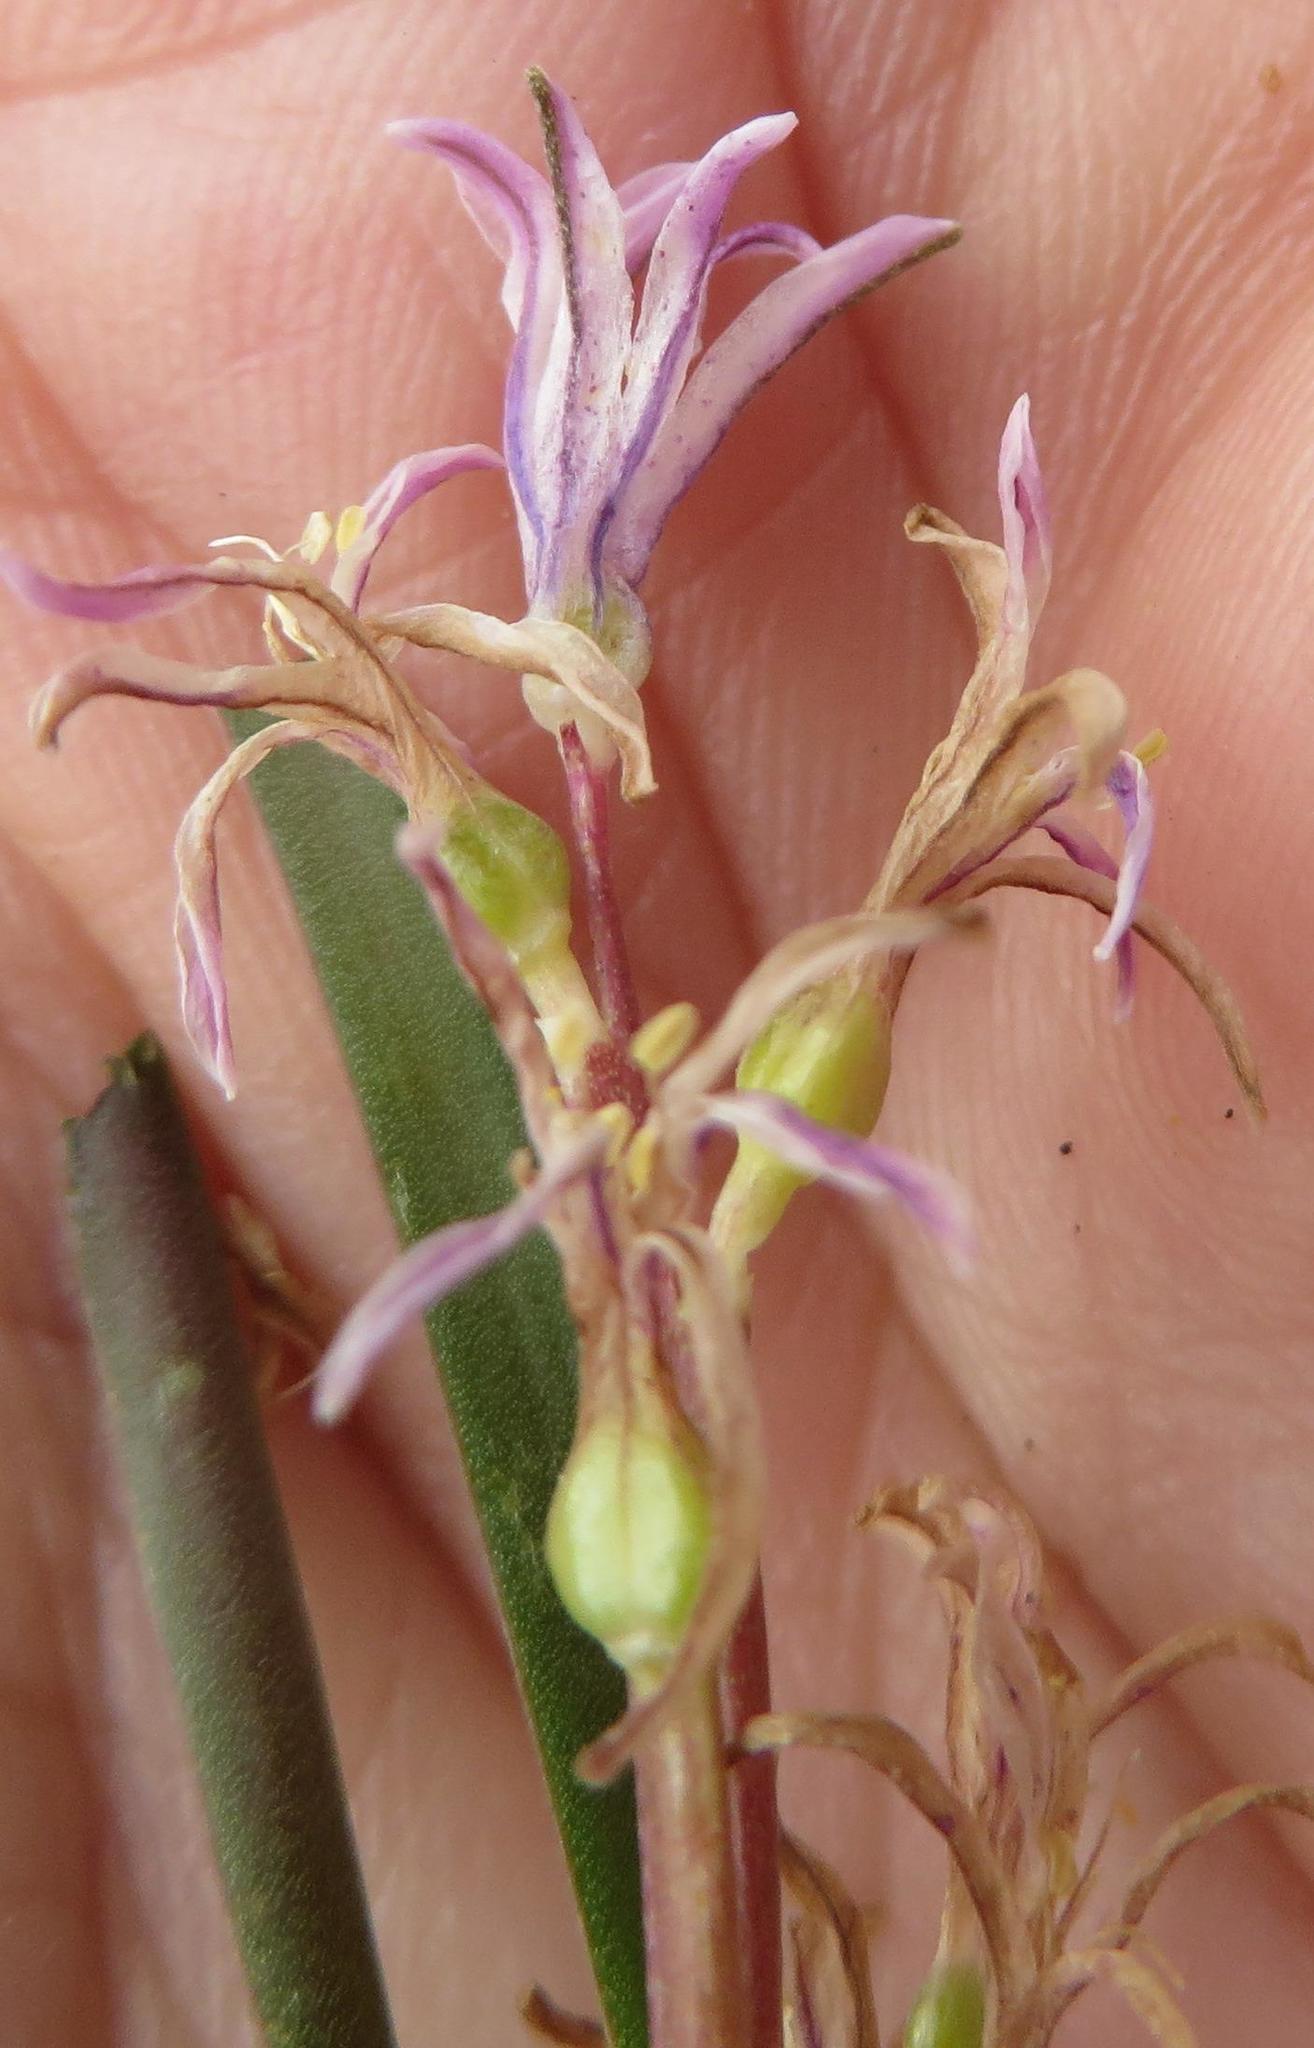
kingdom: Plantae
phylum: Tracheophyta
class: Liliopsida
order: Asparagales
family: Asparagaceae
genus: Lachenalia
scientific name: Lachenalia corymbosa
